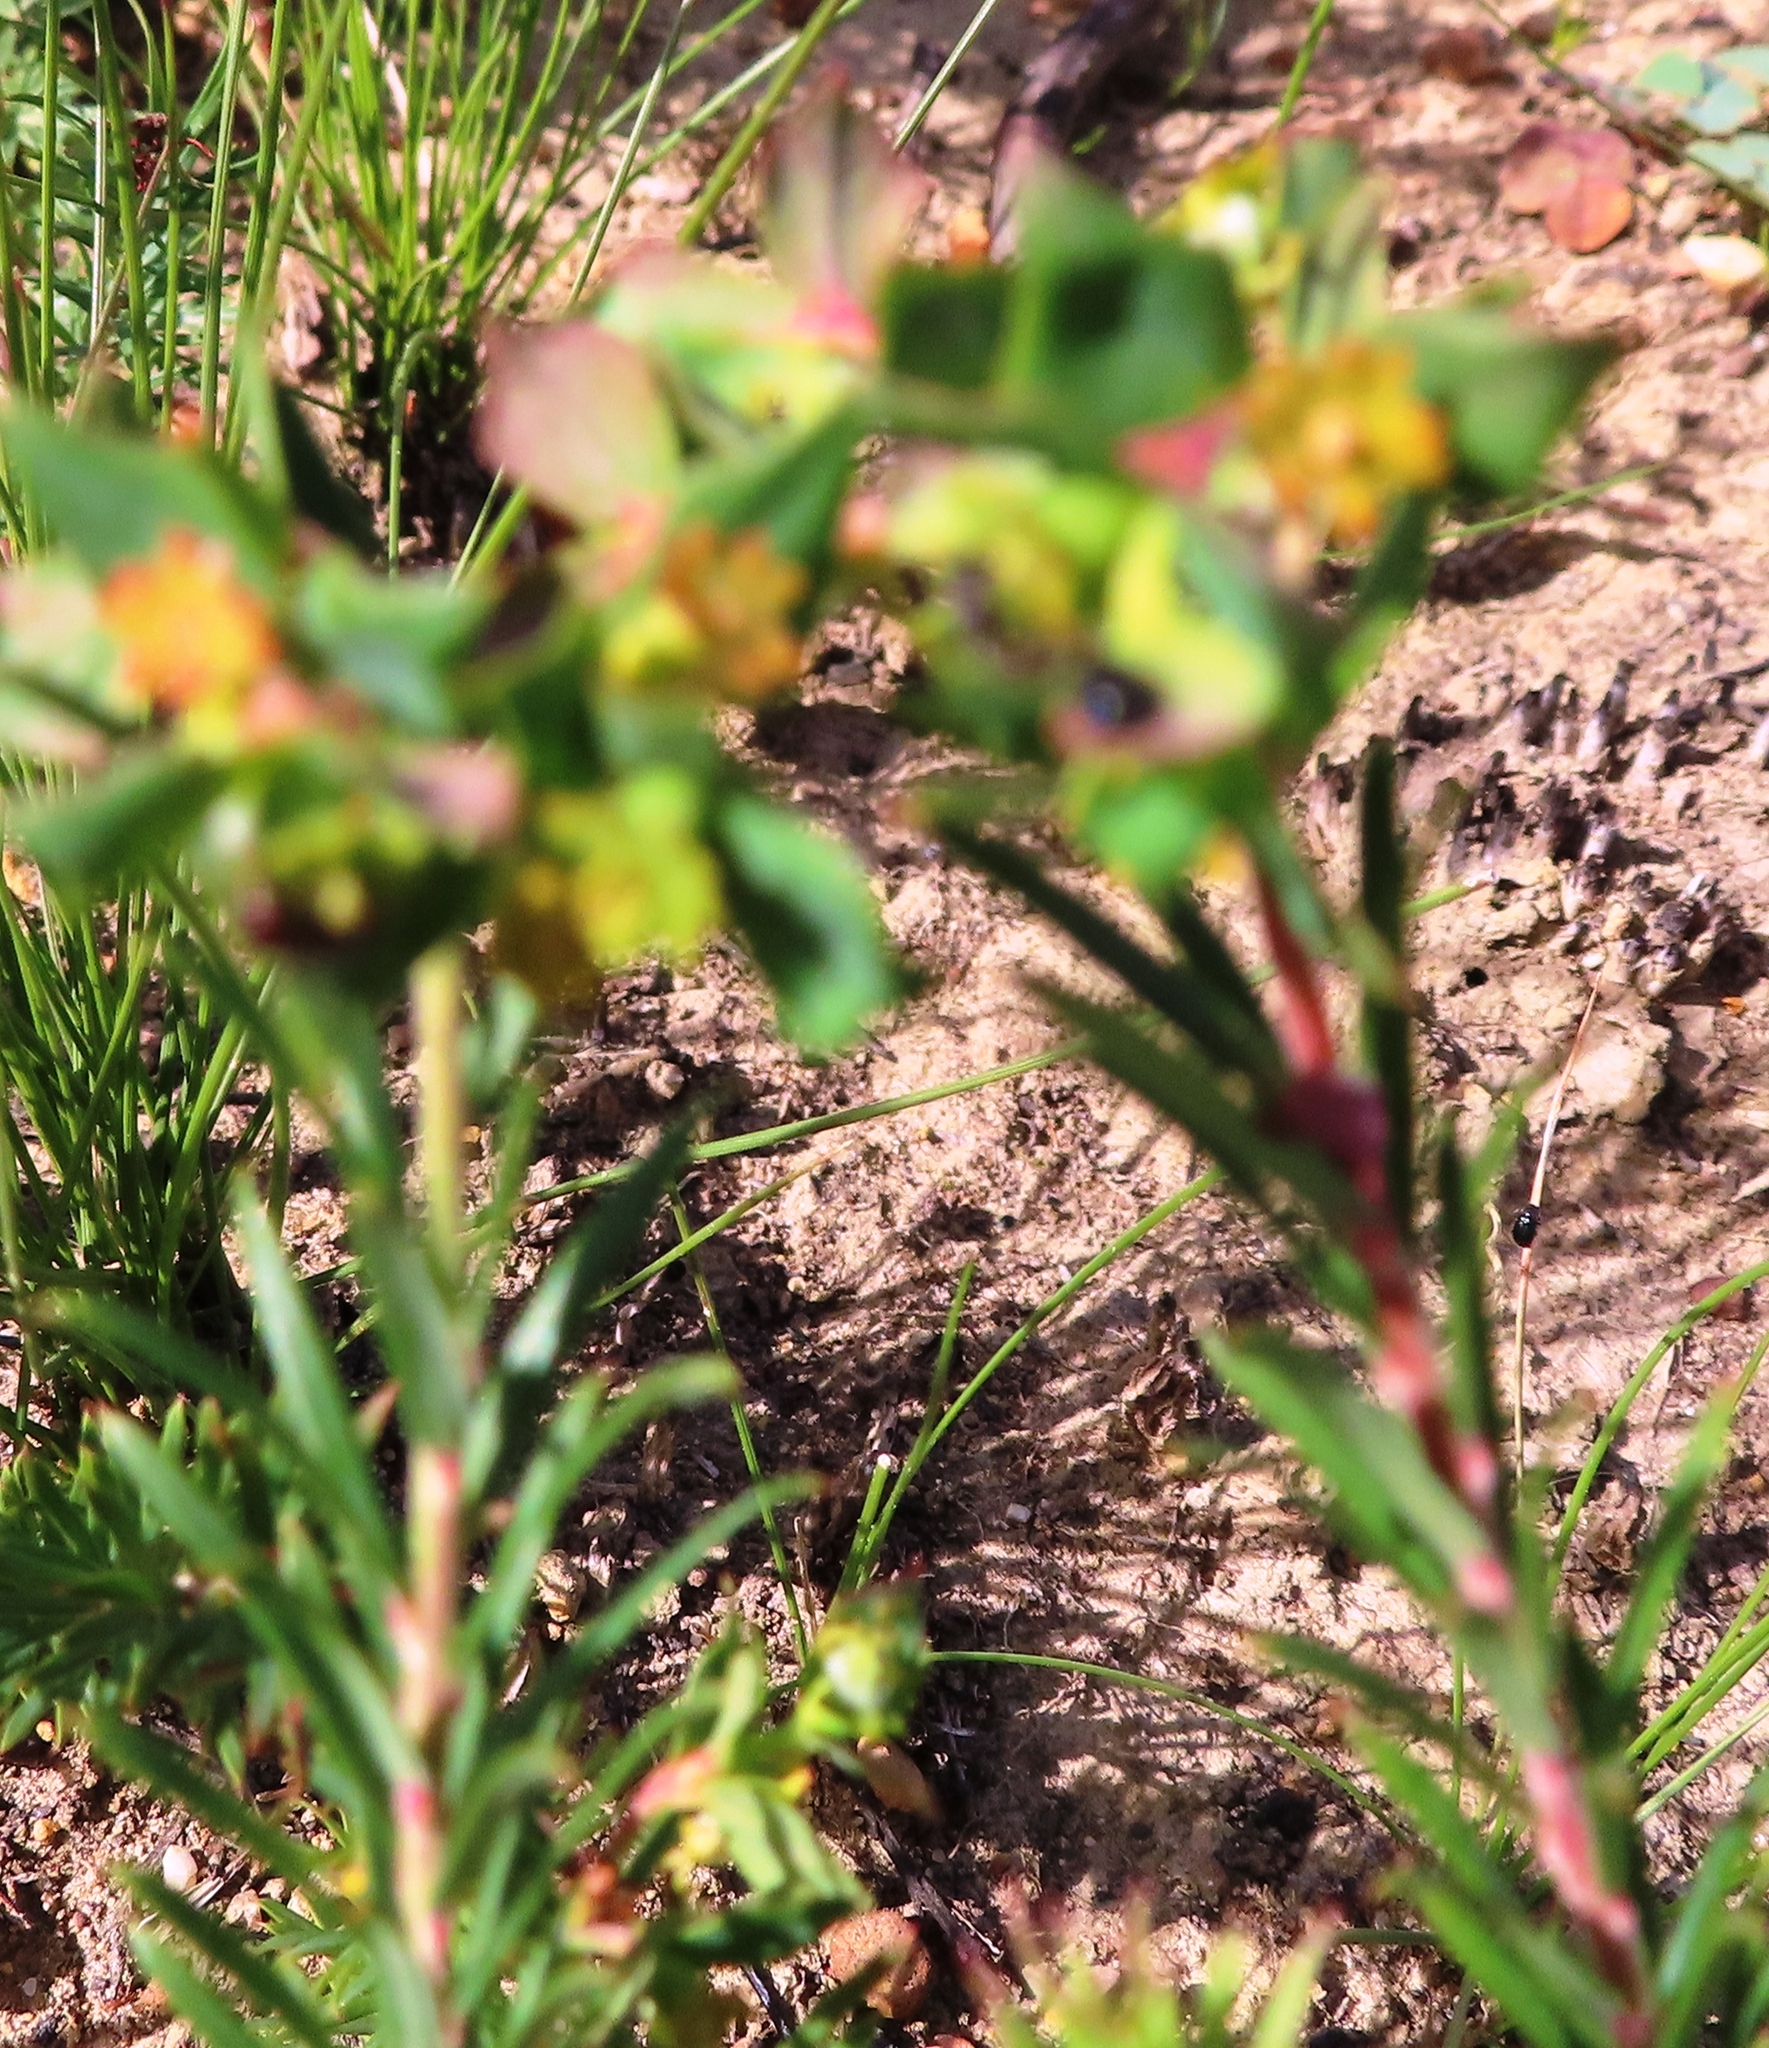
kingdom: Plantae
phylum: Tracheophyta
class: Magnoliopsida
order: Malpighiales
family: Euphorbiaceae
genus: Euphorbia
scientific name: Euphorbia genistoides
